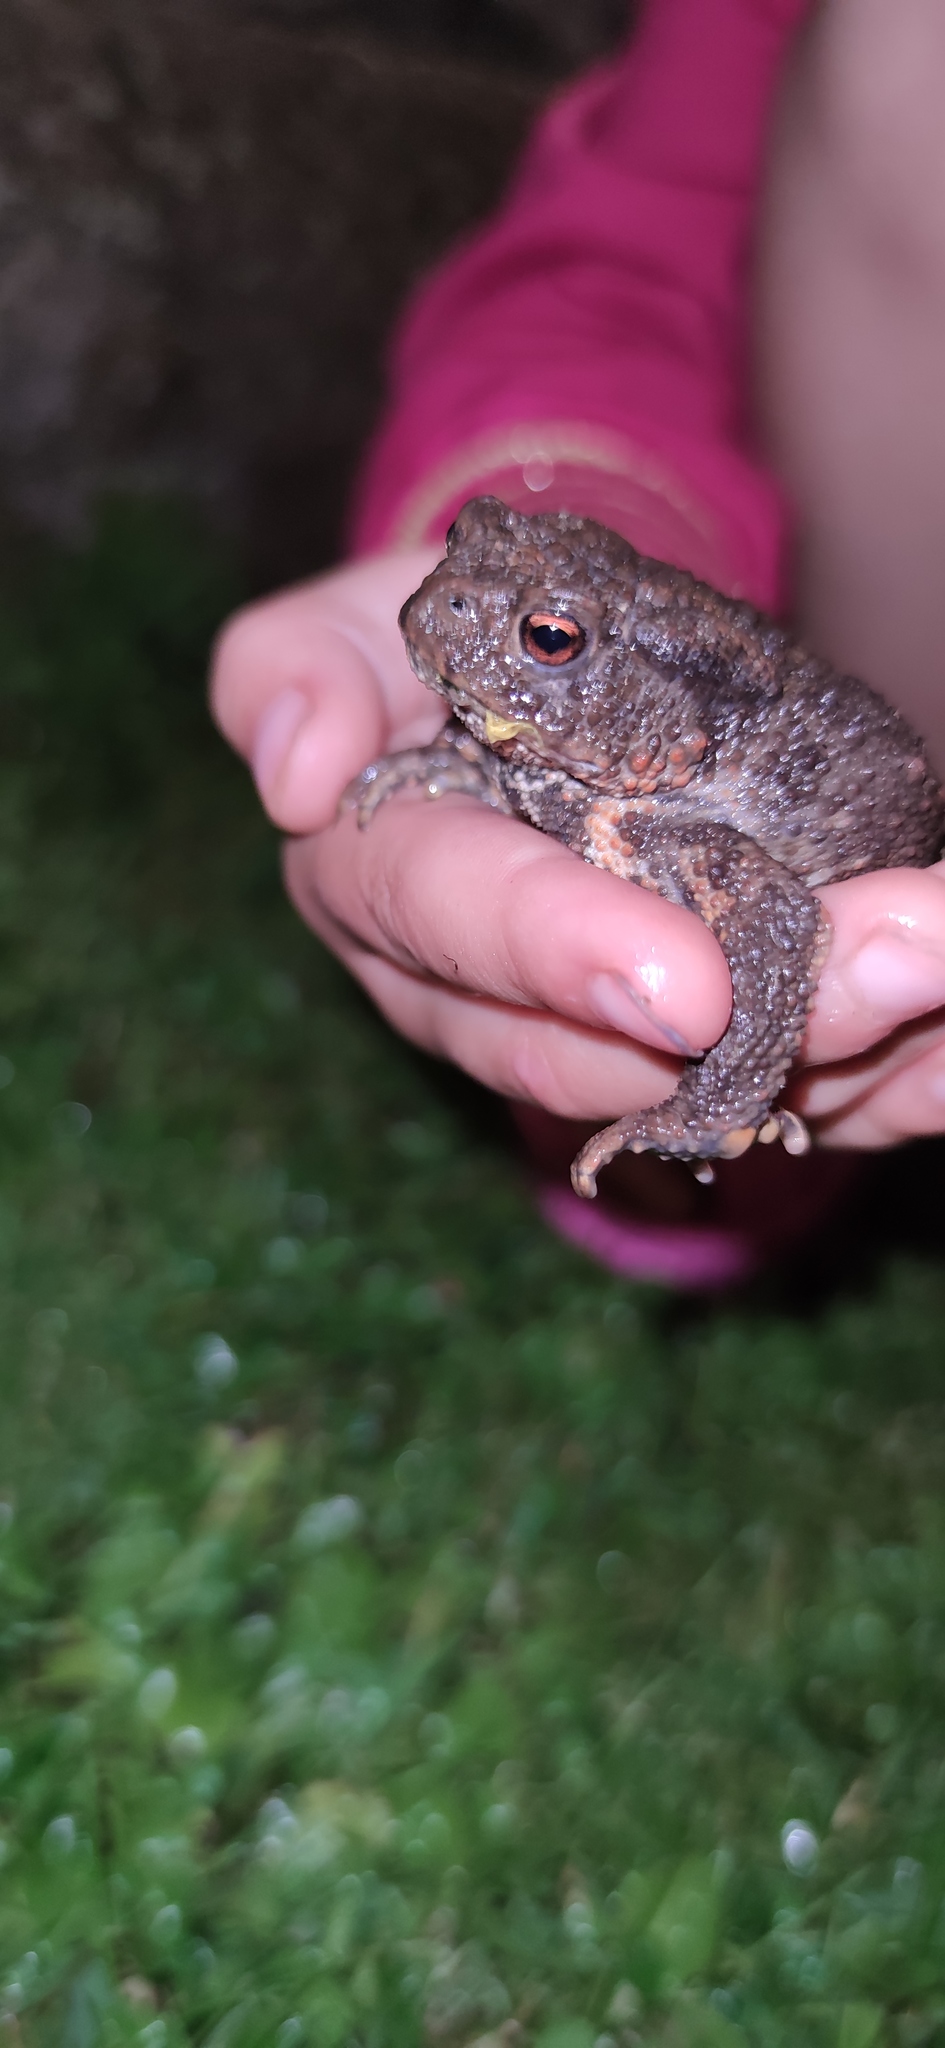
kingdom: Animalia
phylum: Chordata
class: Amphibia
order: Anura
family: Bufonidae
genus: Bufo
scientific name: Bufo bufo
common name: Common toad
